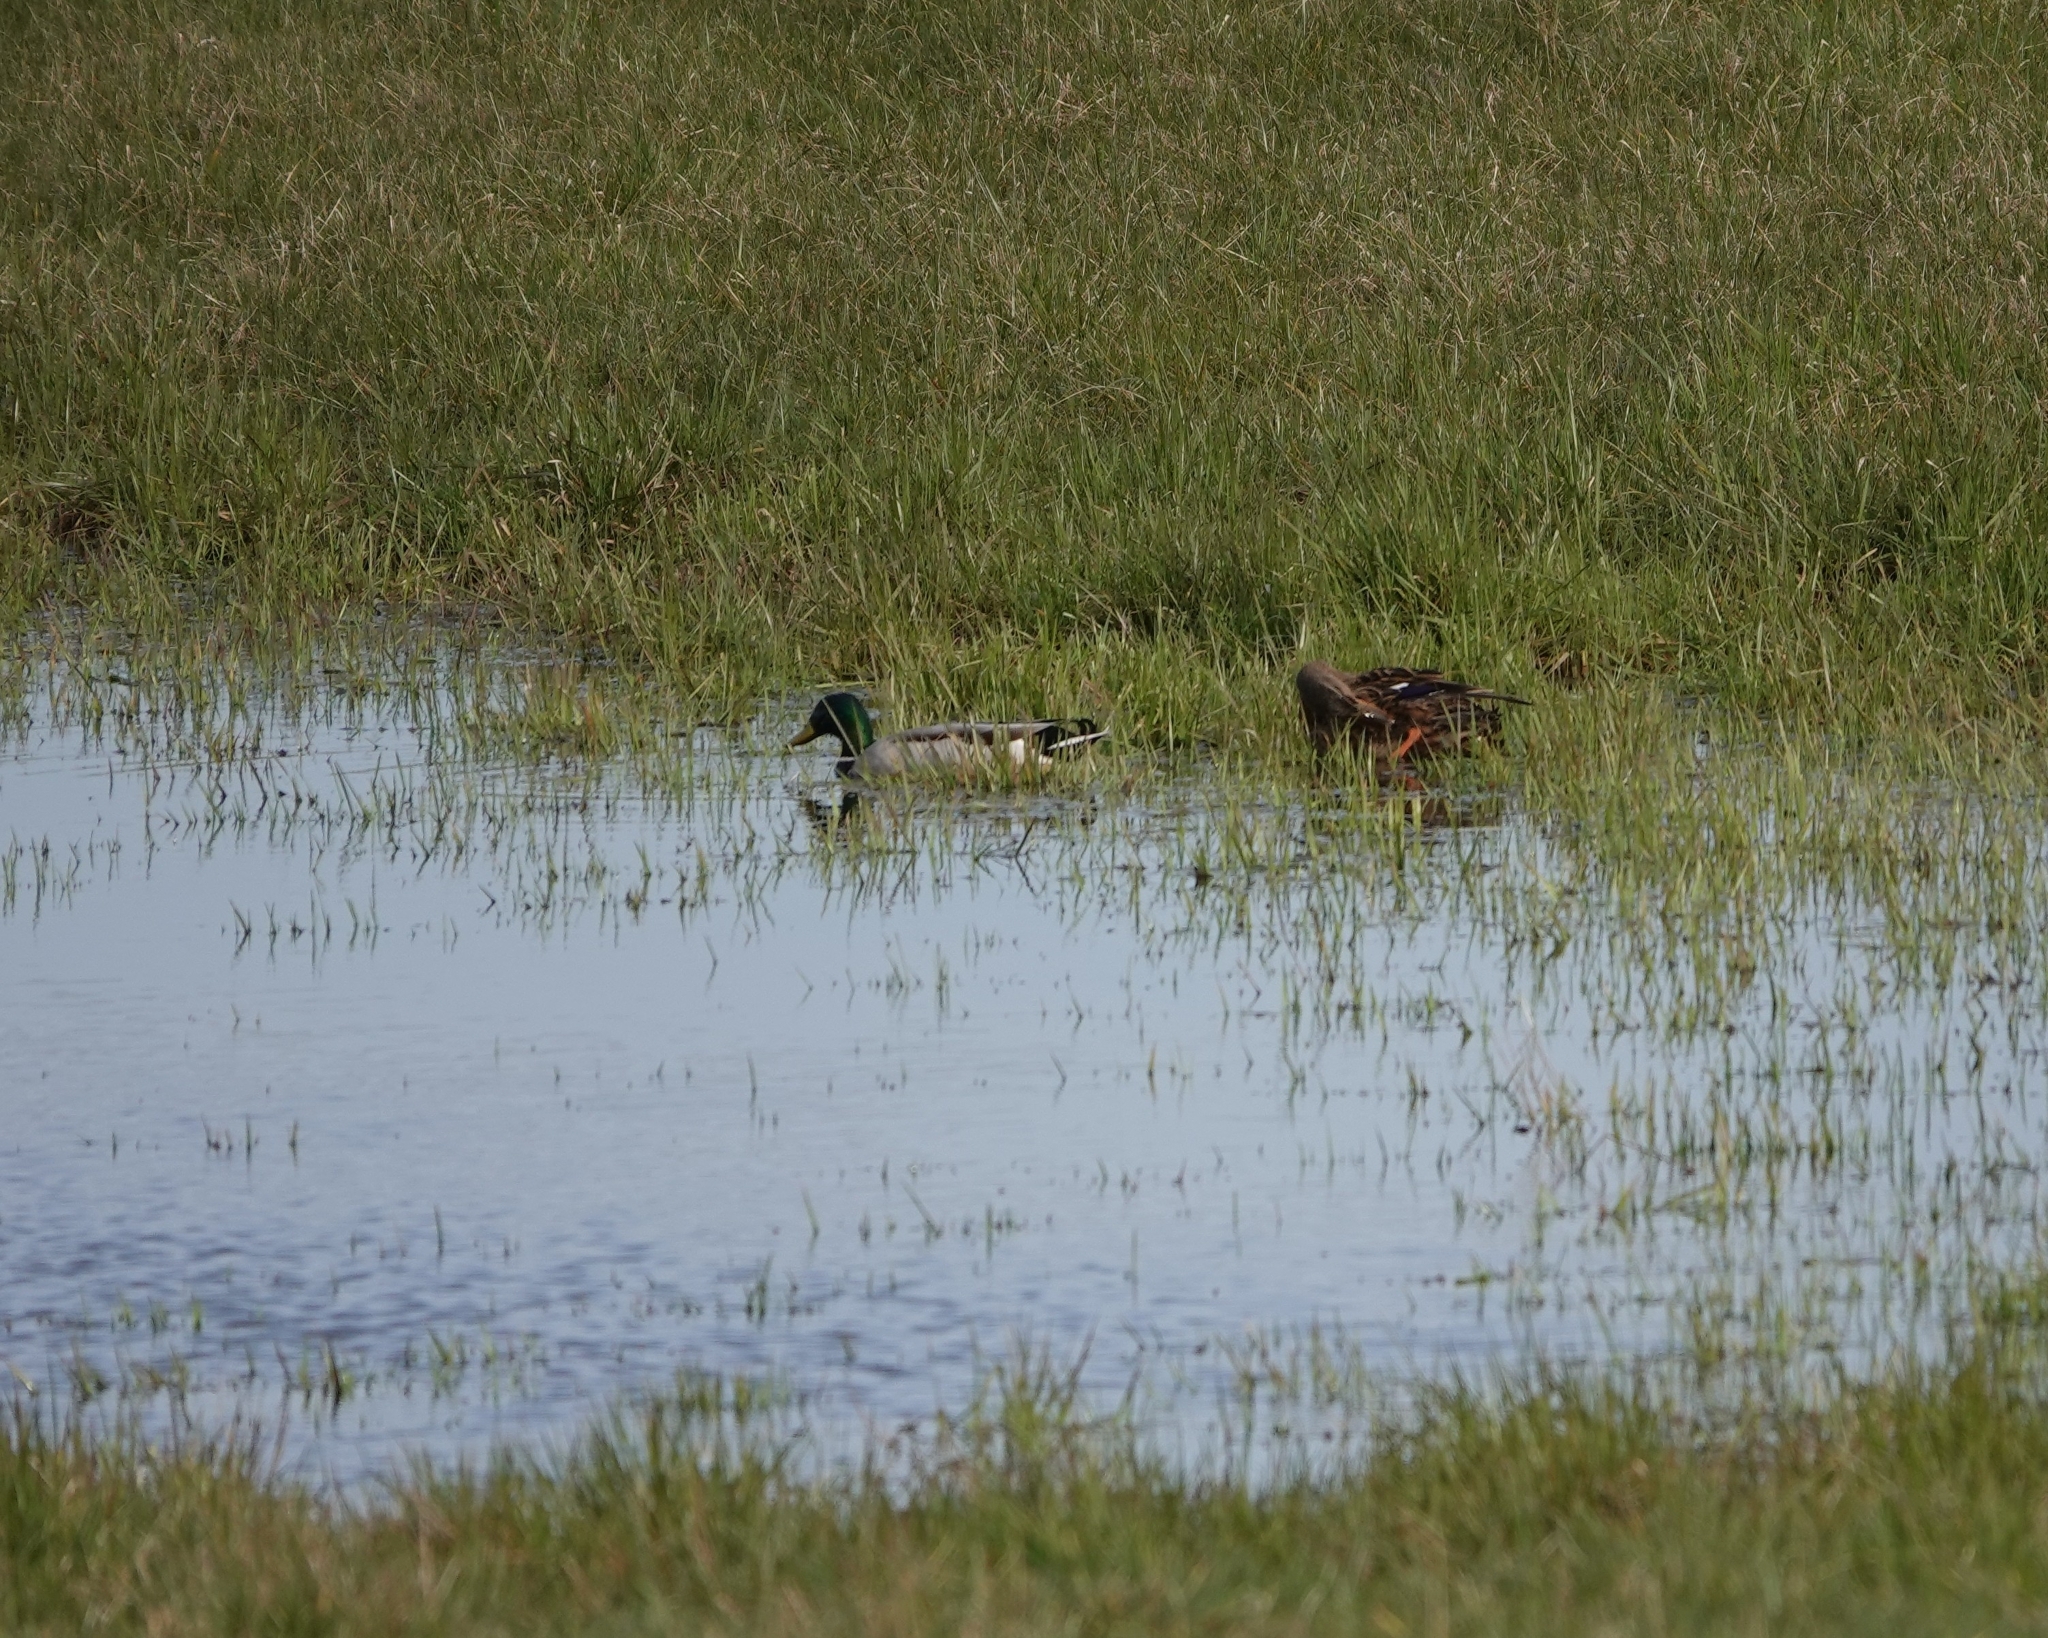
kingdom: Animalia
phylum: Chordata
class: Aves
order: Anseriformes
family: Anatidae
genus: Anas
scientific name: Anas platyrhynchos
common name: Mallard
